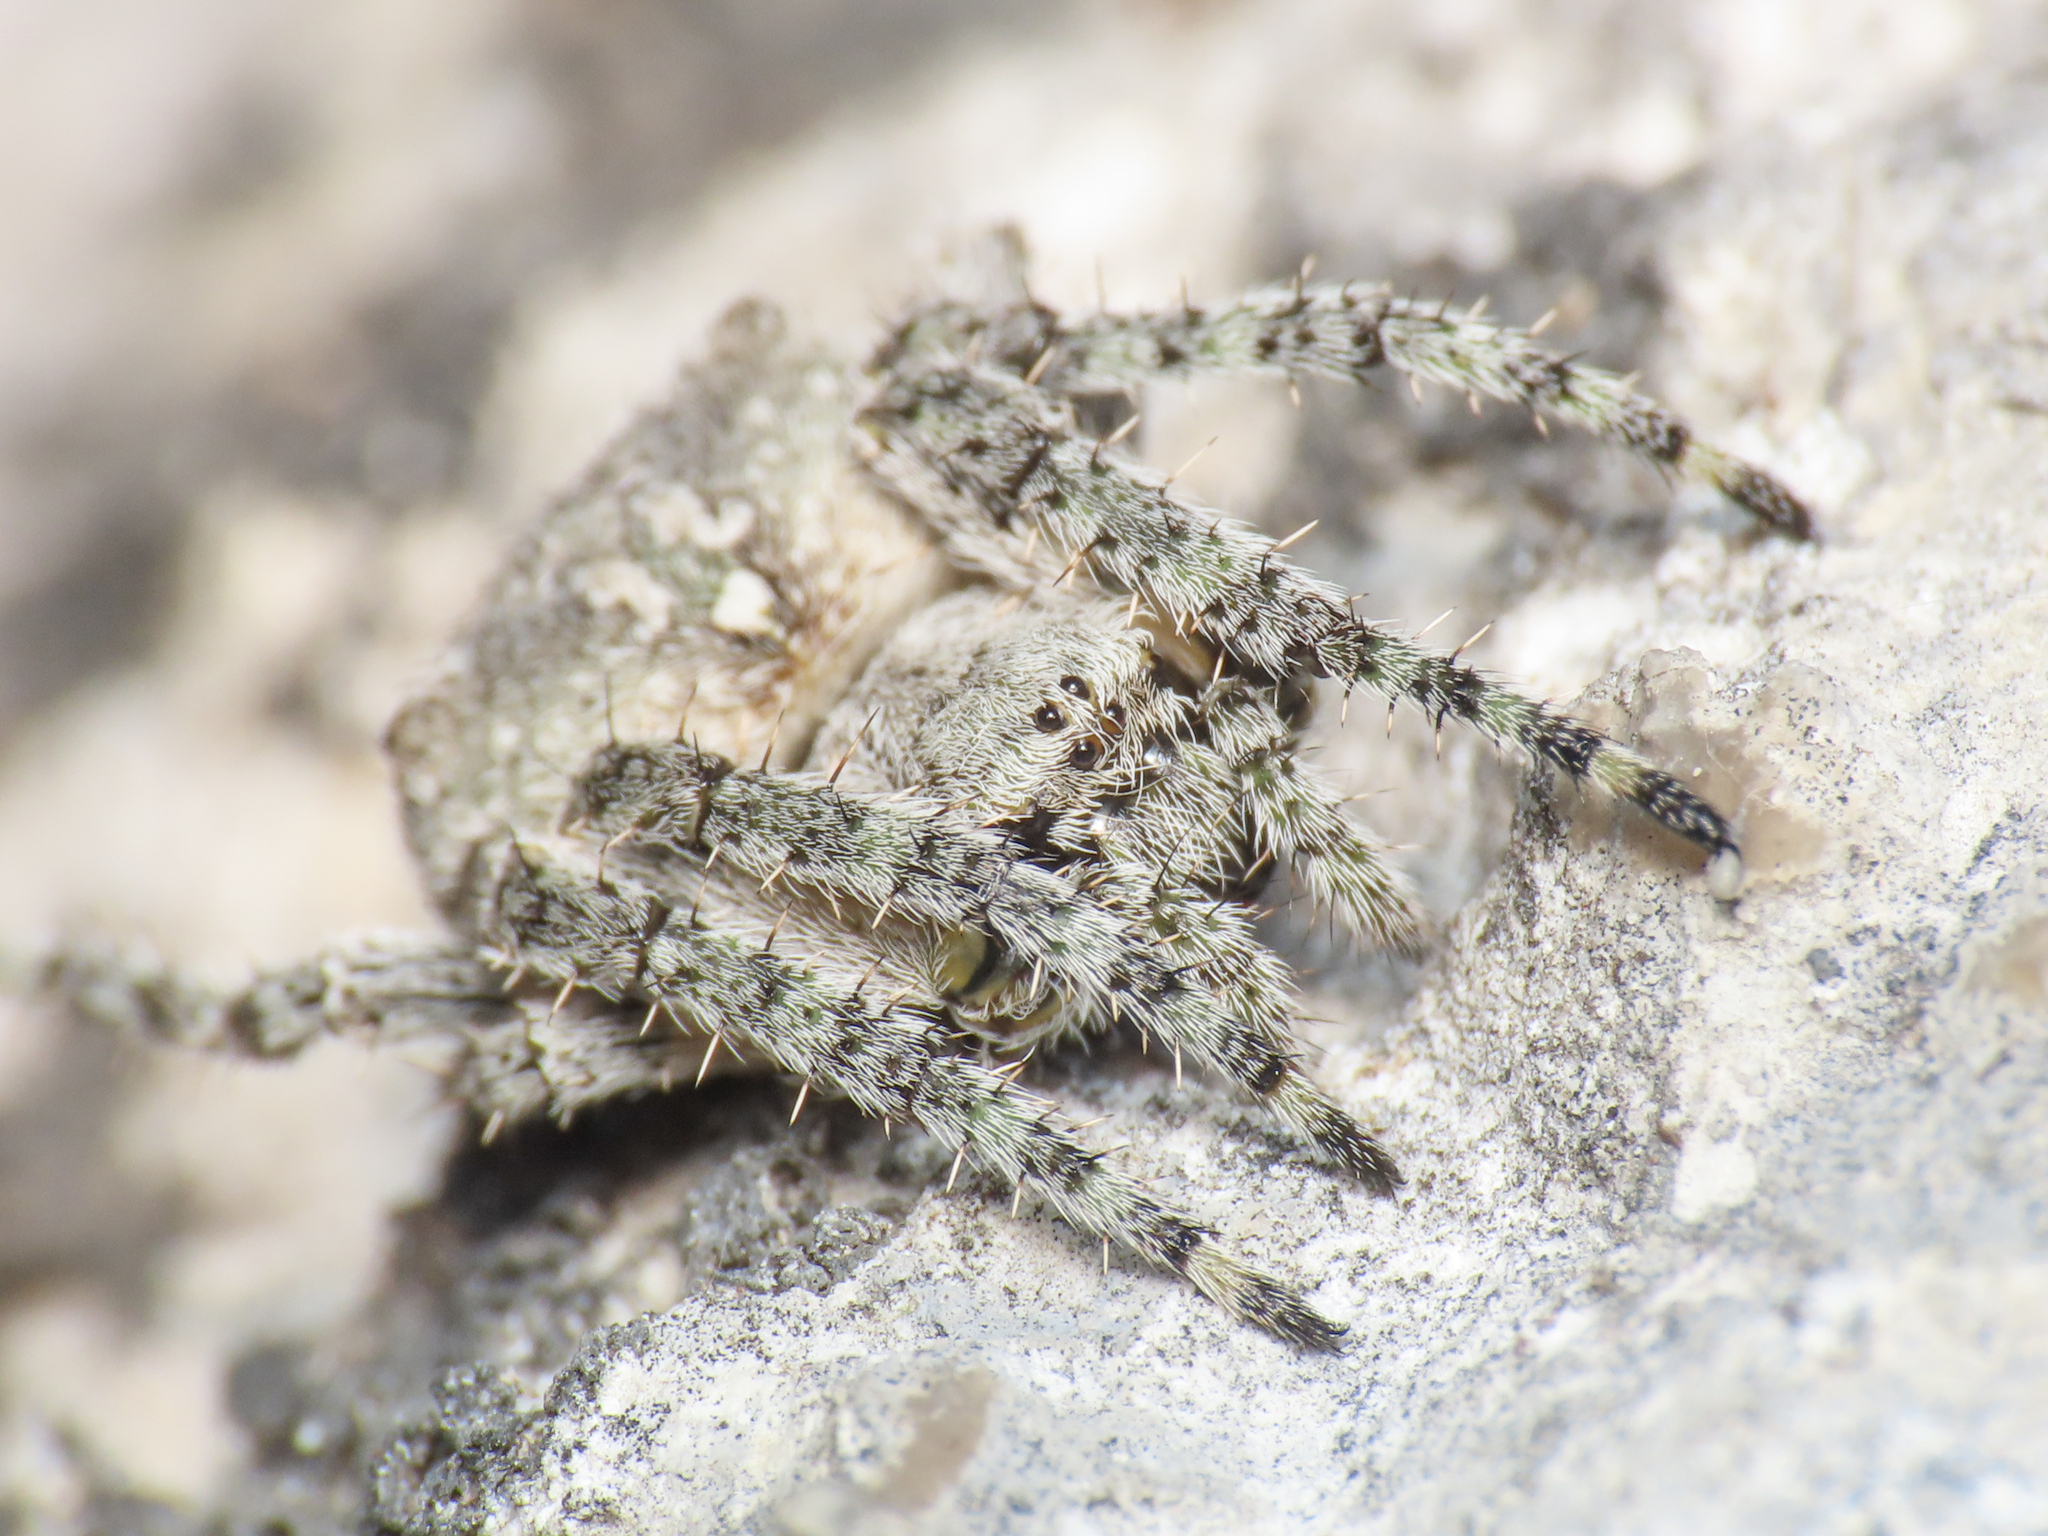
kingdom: Animalia
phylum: Arthropoda
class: Arachnida
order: Araneae
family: Araneidae
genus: Araneus
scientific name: Araneus circe
